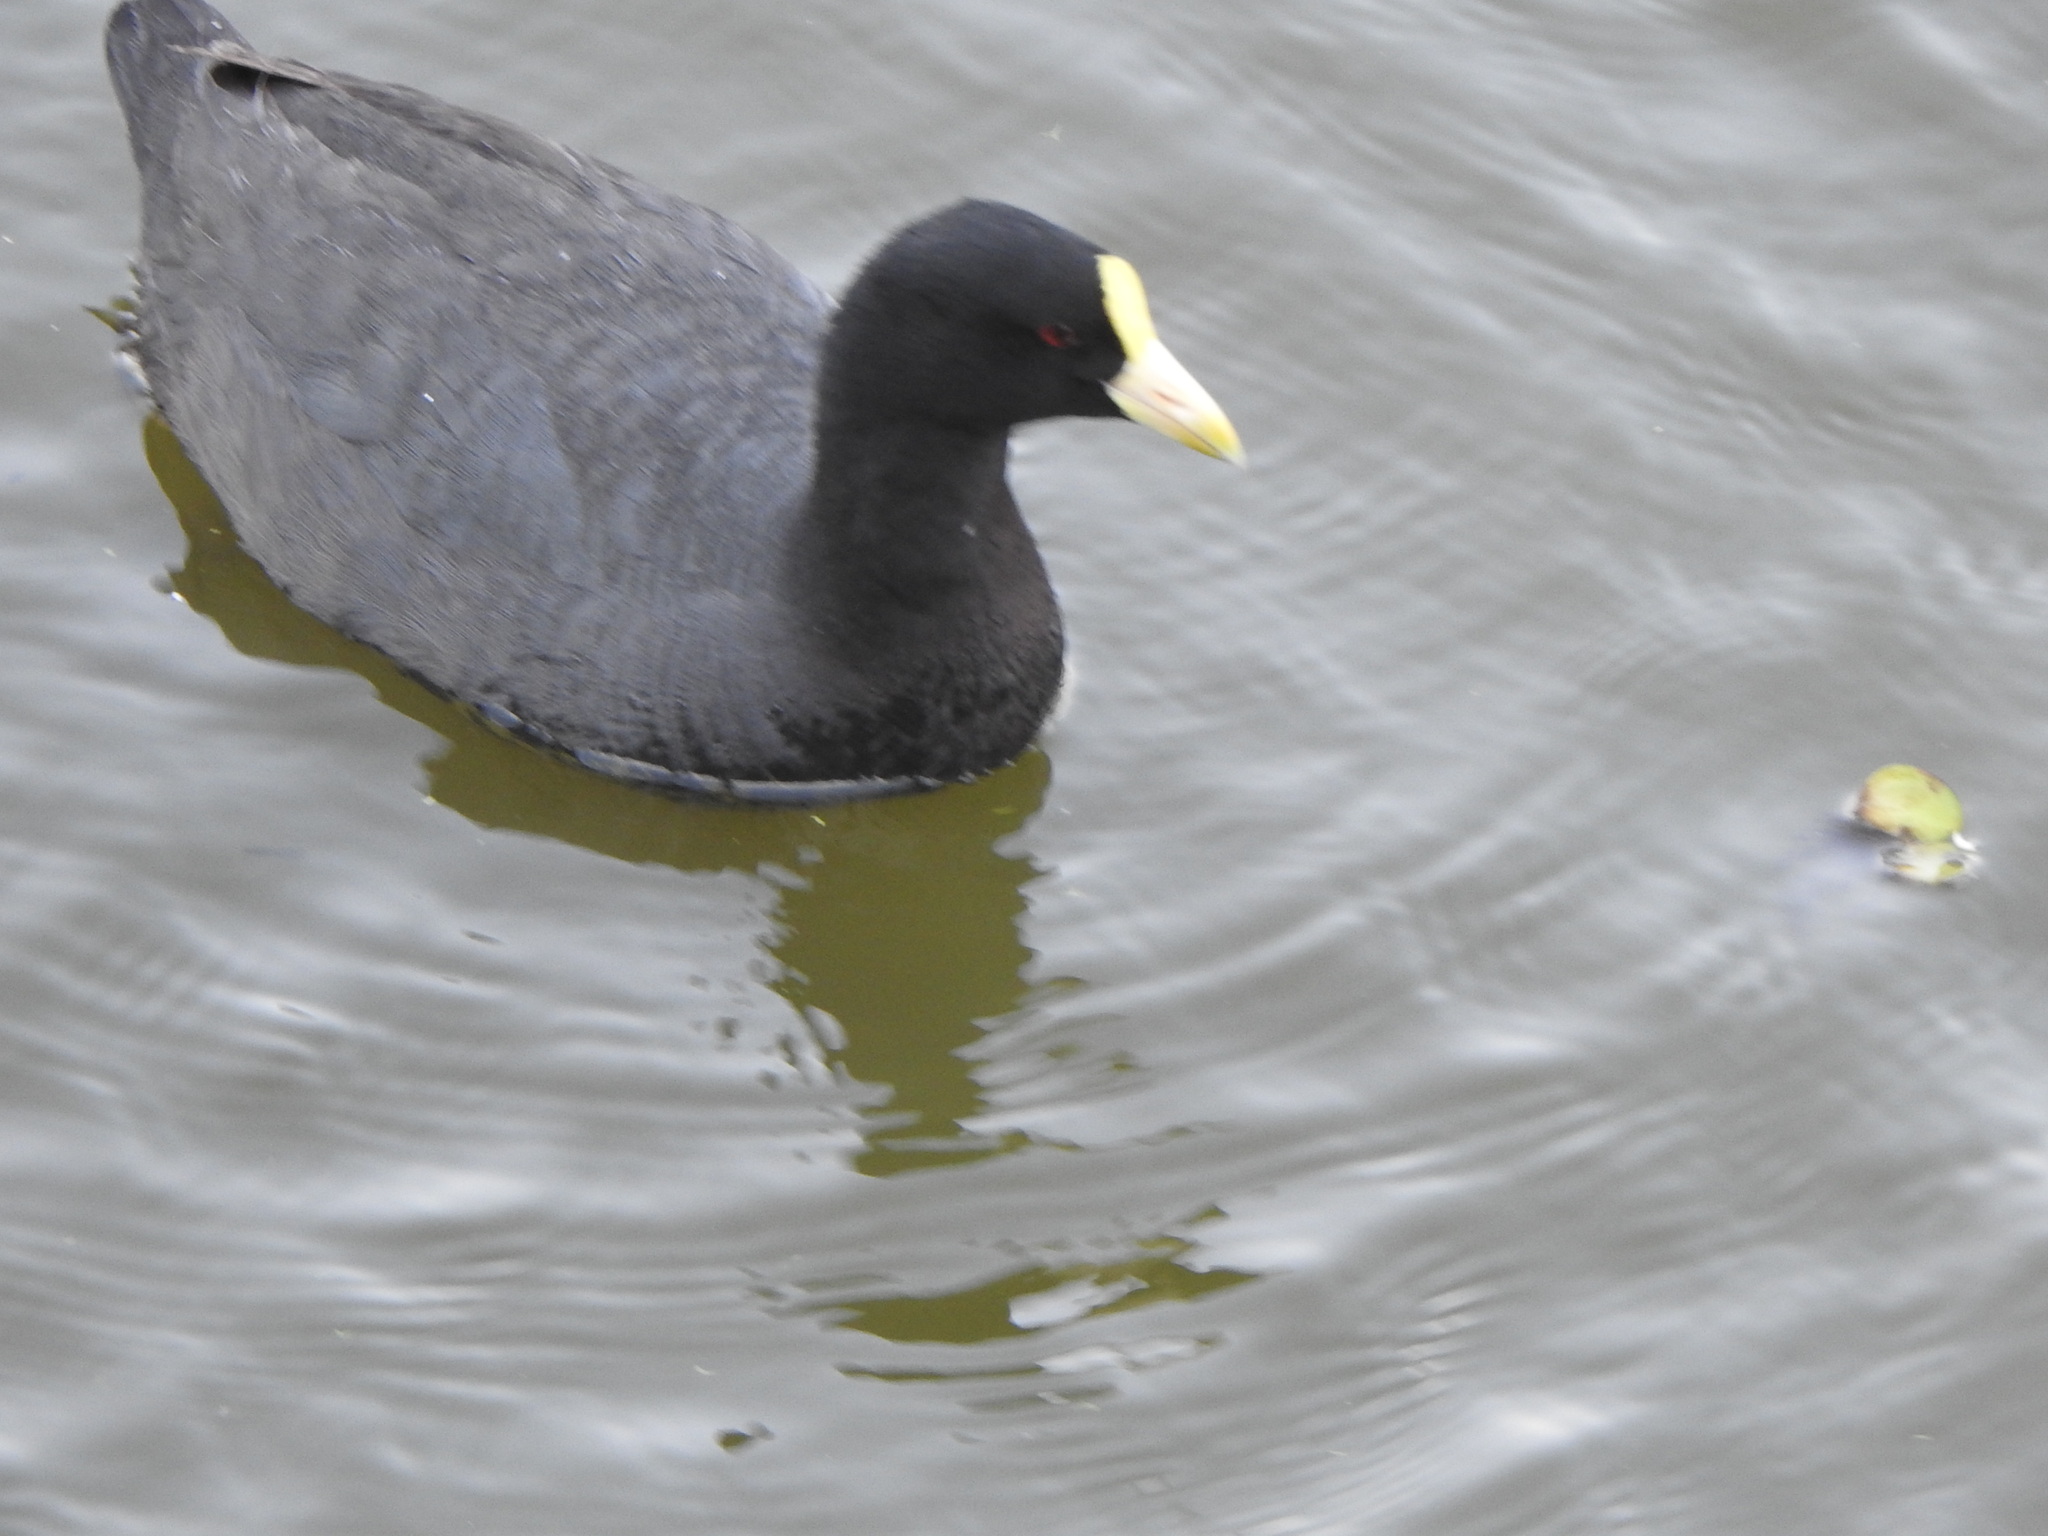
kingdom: Animalia
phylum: Chordata
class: Aves
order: Gruiformes
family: Rallidae
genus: Fulica
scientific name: Fulica leucoptera
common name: White-winged coot
